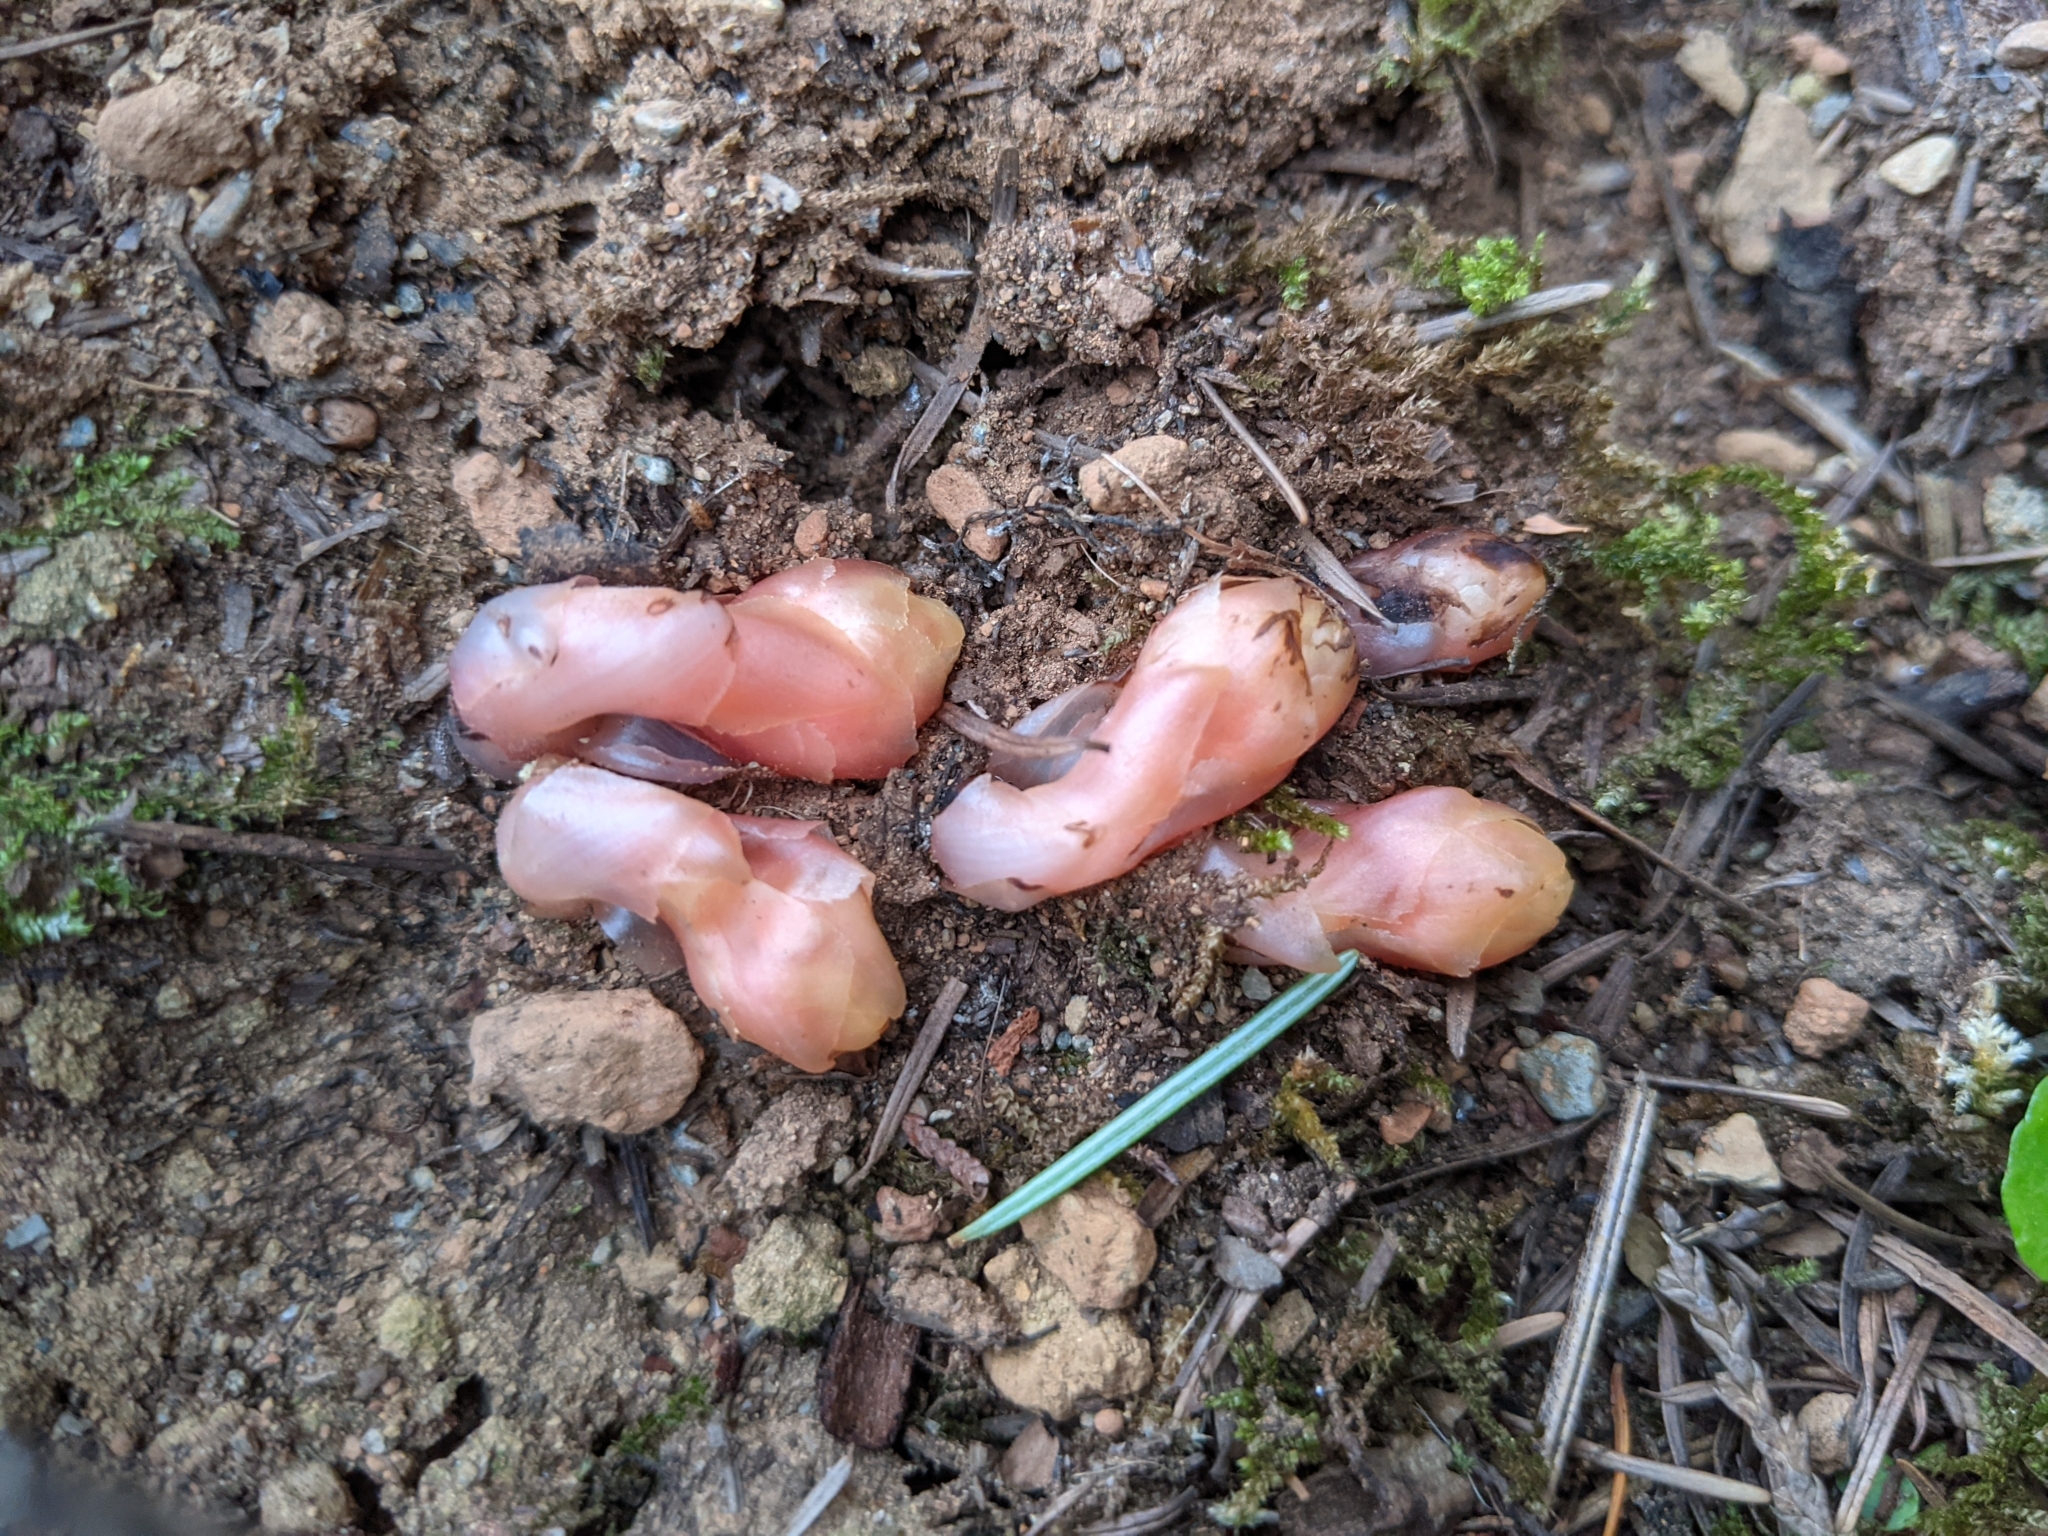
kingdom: Plantae
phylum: Tracheophyta
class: Magnoliopsida
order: Ericales
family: Ericaceae
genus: Hypopitys
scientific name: Hypopitys monotropa
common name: Yellow bird's-nest
